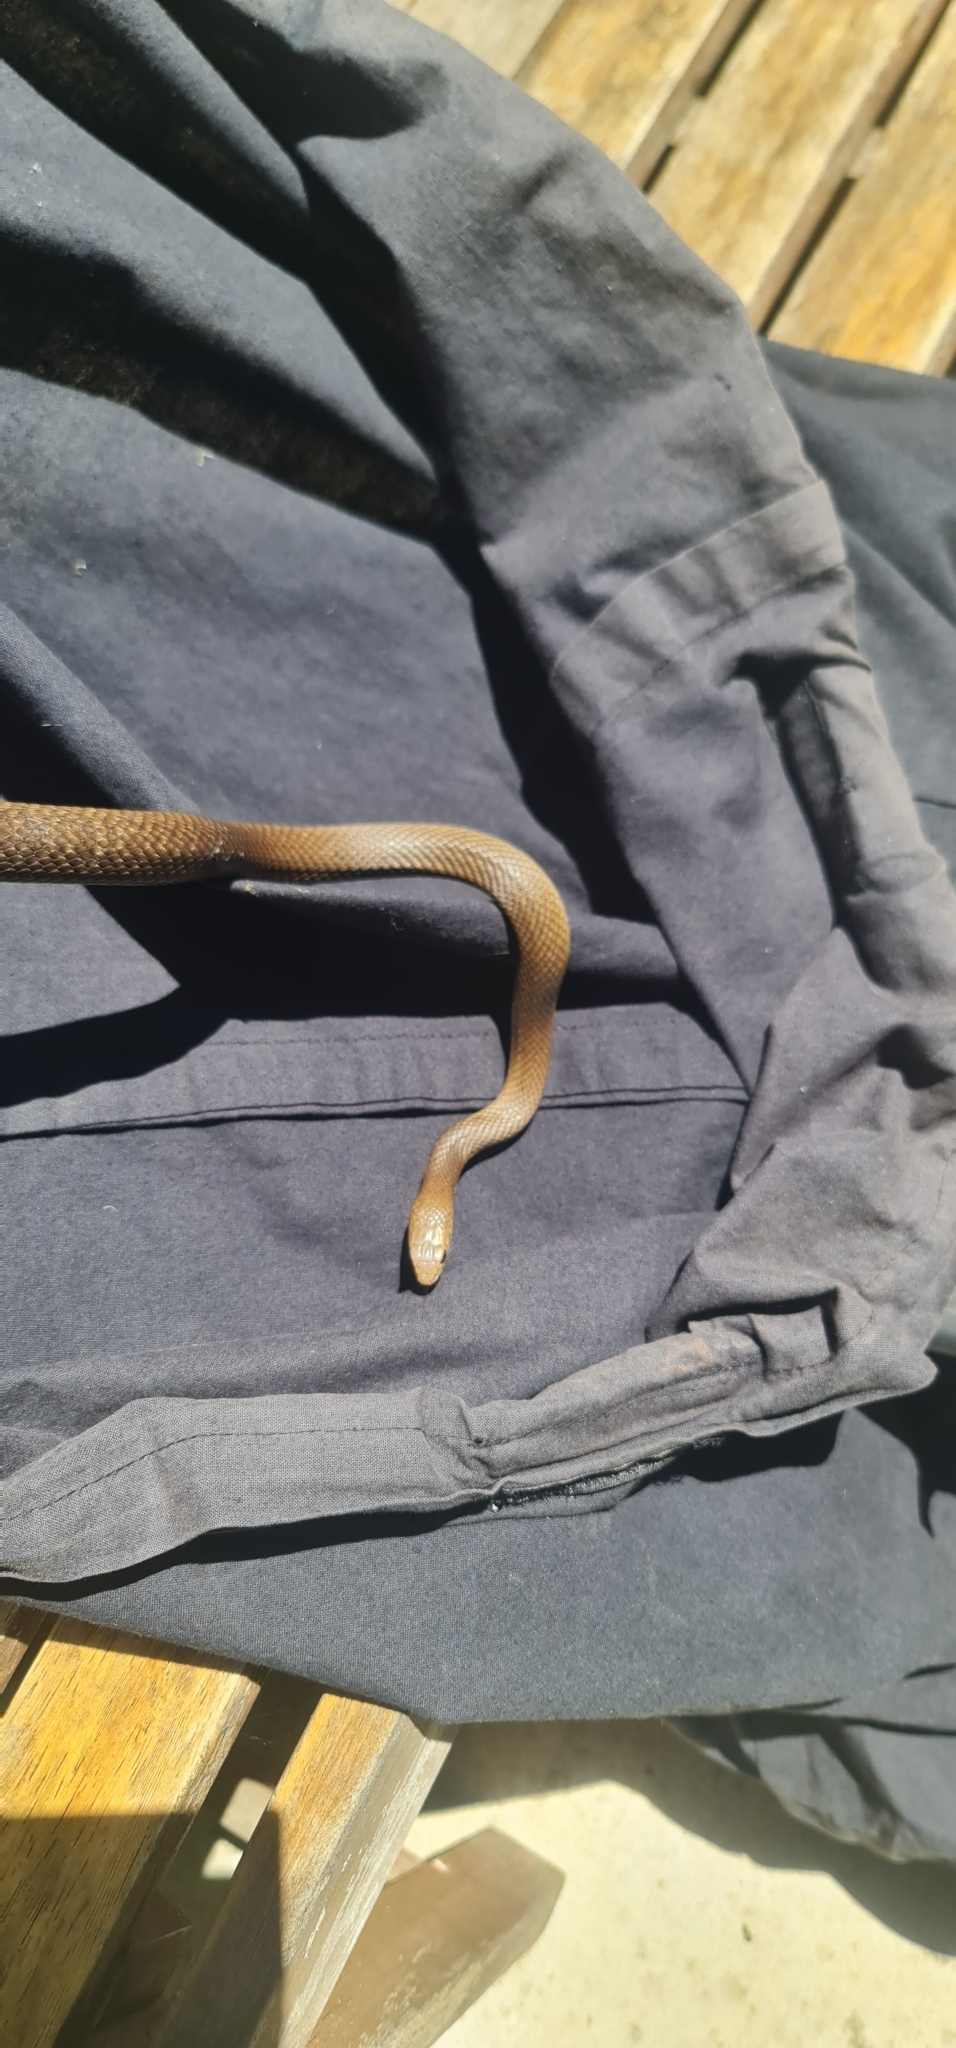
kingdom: Animalia
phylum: Chordata
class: Squamata
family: Elapidae
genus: Pseudonaja
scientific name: Pseudonaja textilis
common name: Eastern brown snake
